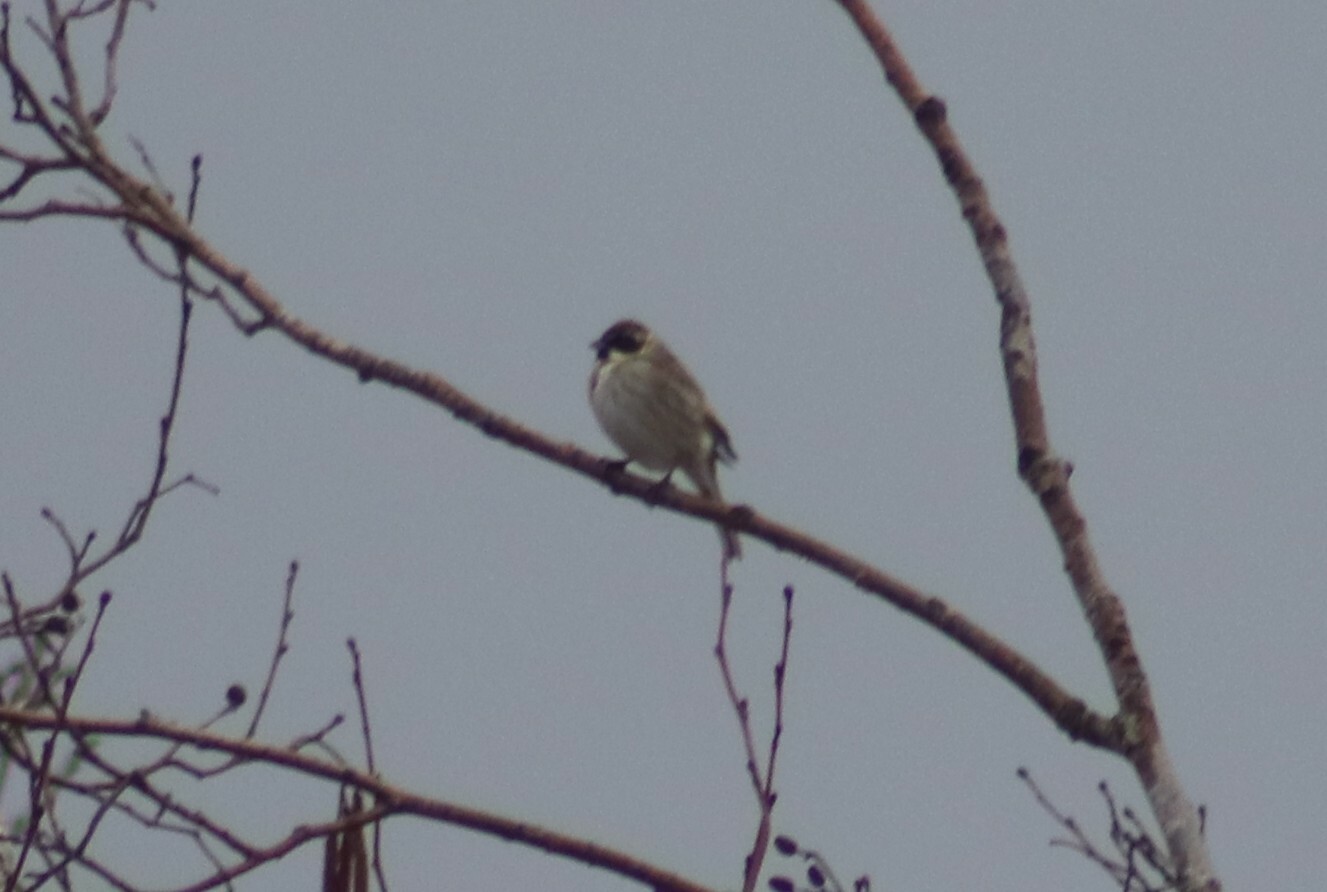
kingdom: Animalia
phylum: Chordata
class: Aves
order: Passeriformes
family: Emberizidae
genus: Emberiza
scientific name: Emberiza schoeniclus
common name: Reed bunting
